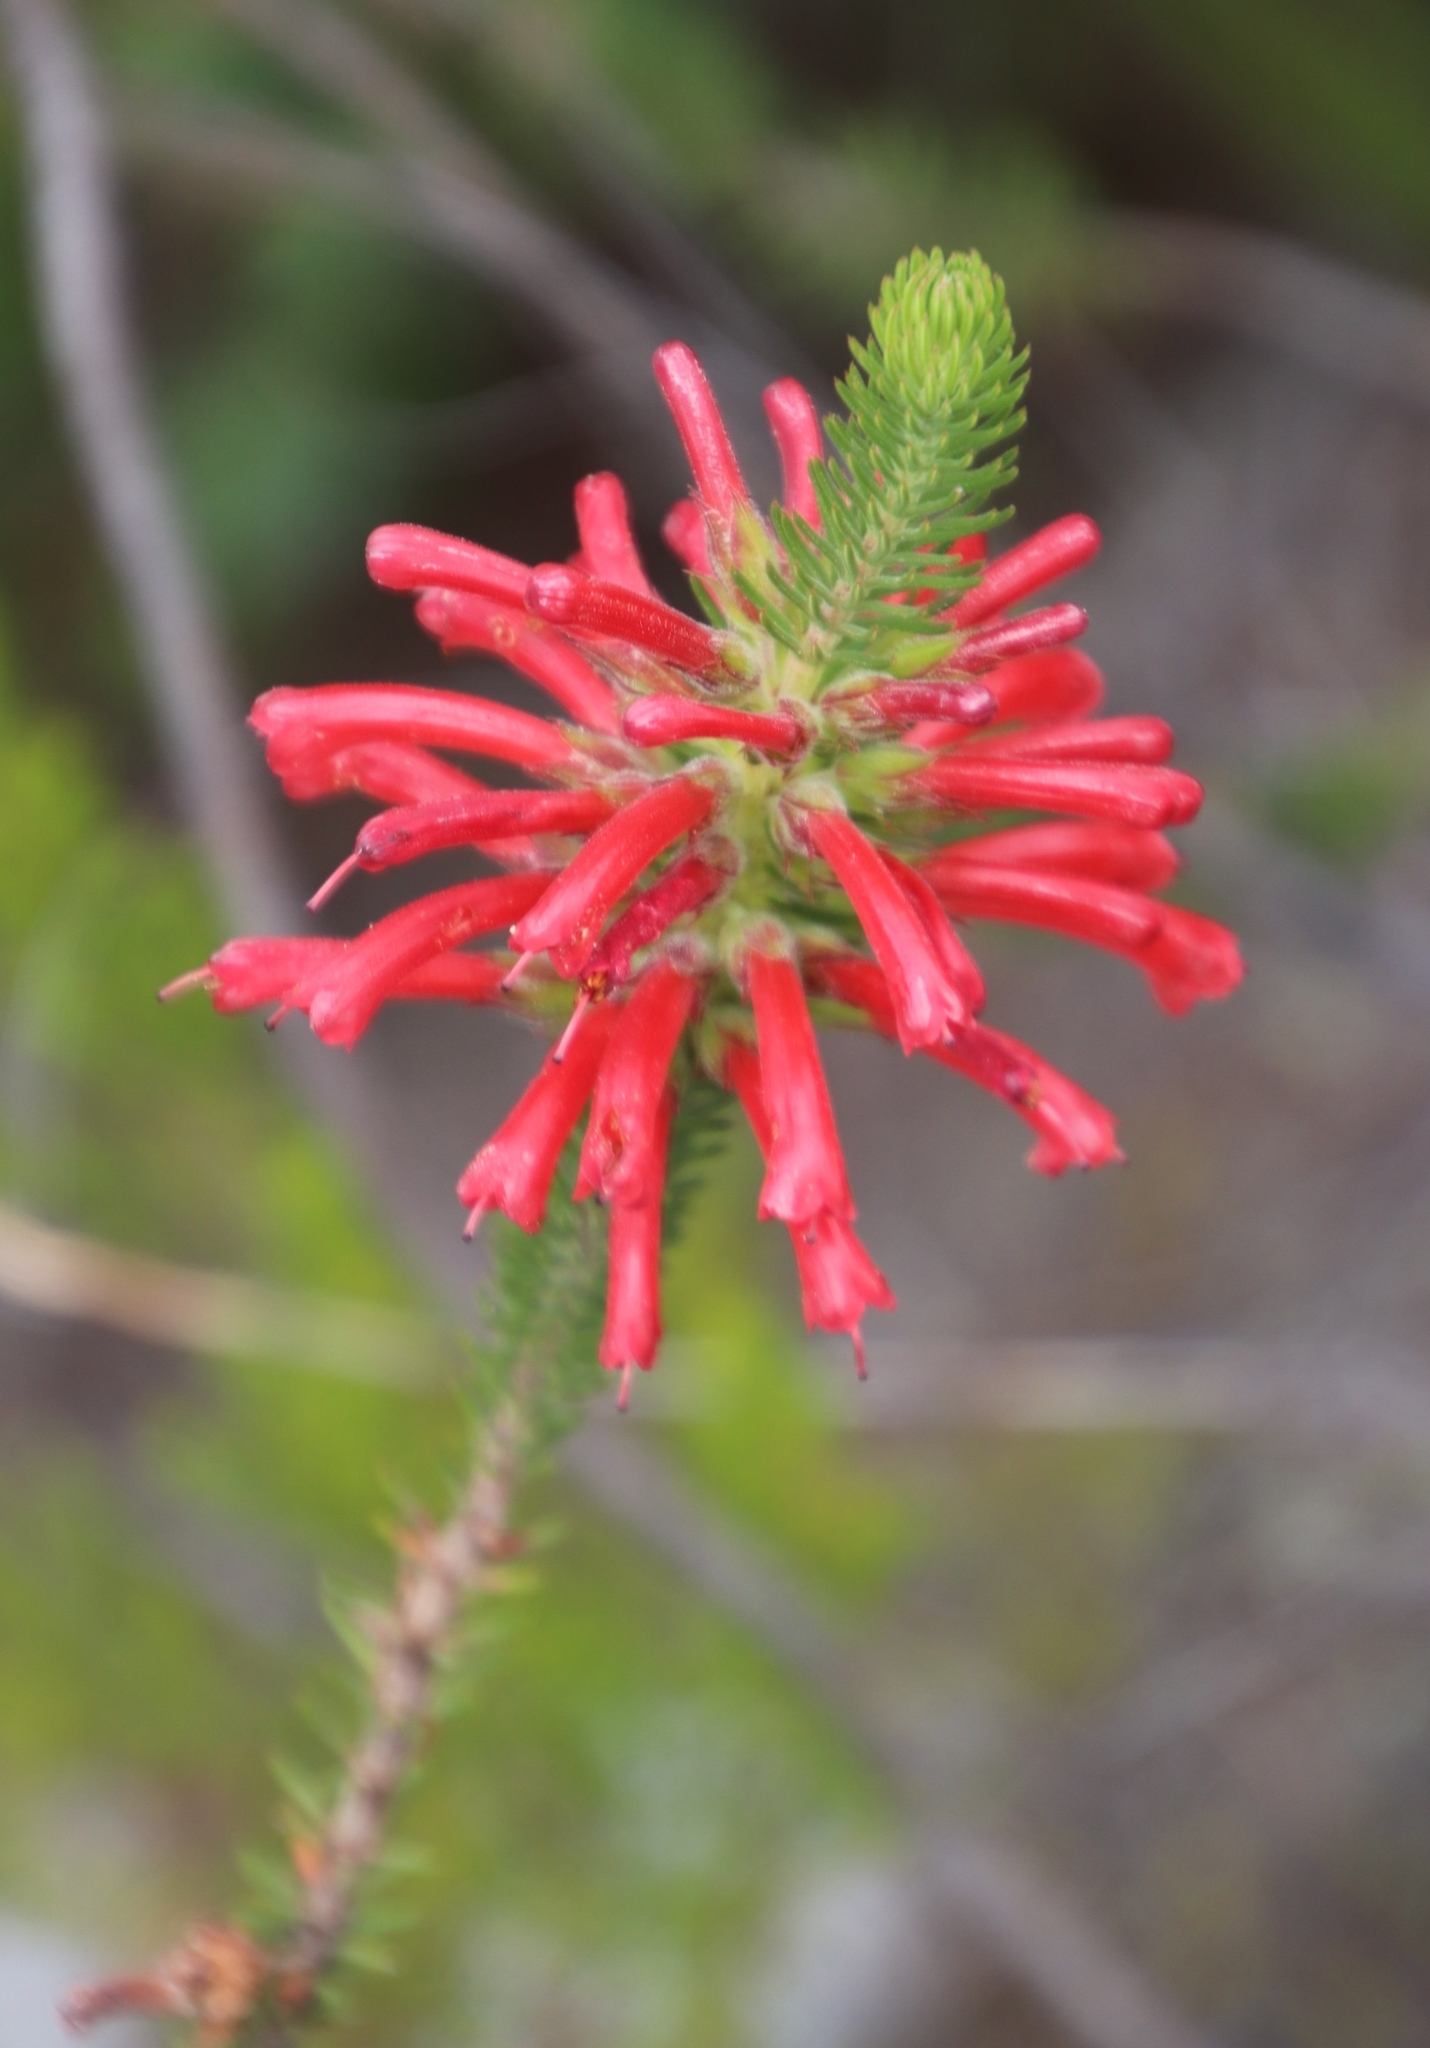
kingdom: Plantae
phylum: Tracheophyta
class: Magnoliopsida
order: Ericales
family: Ericaceae
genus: Erica
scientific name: Erica abietina
